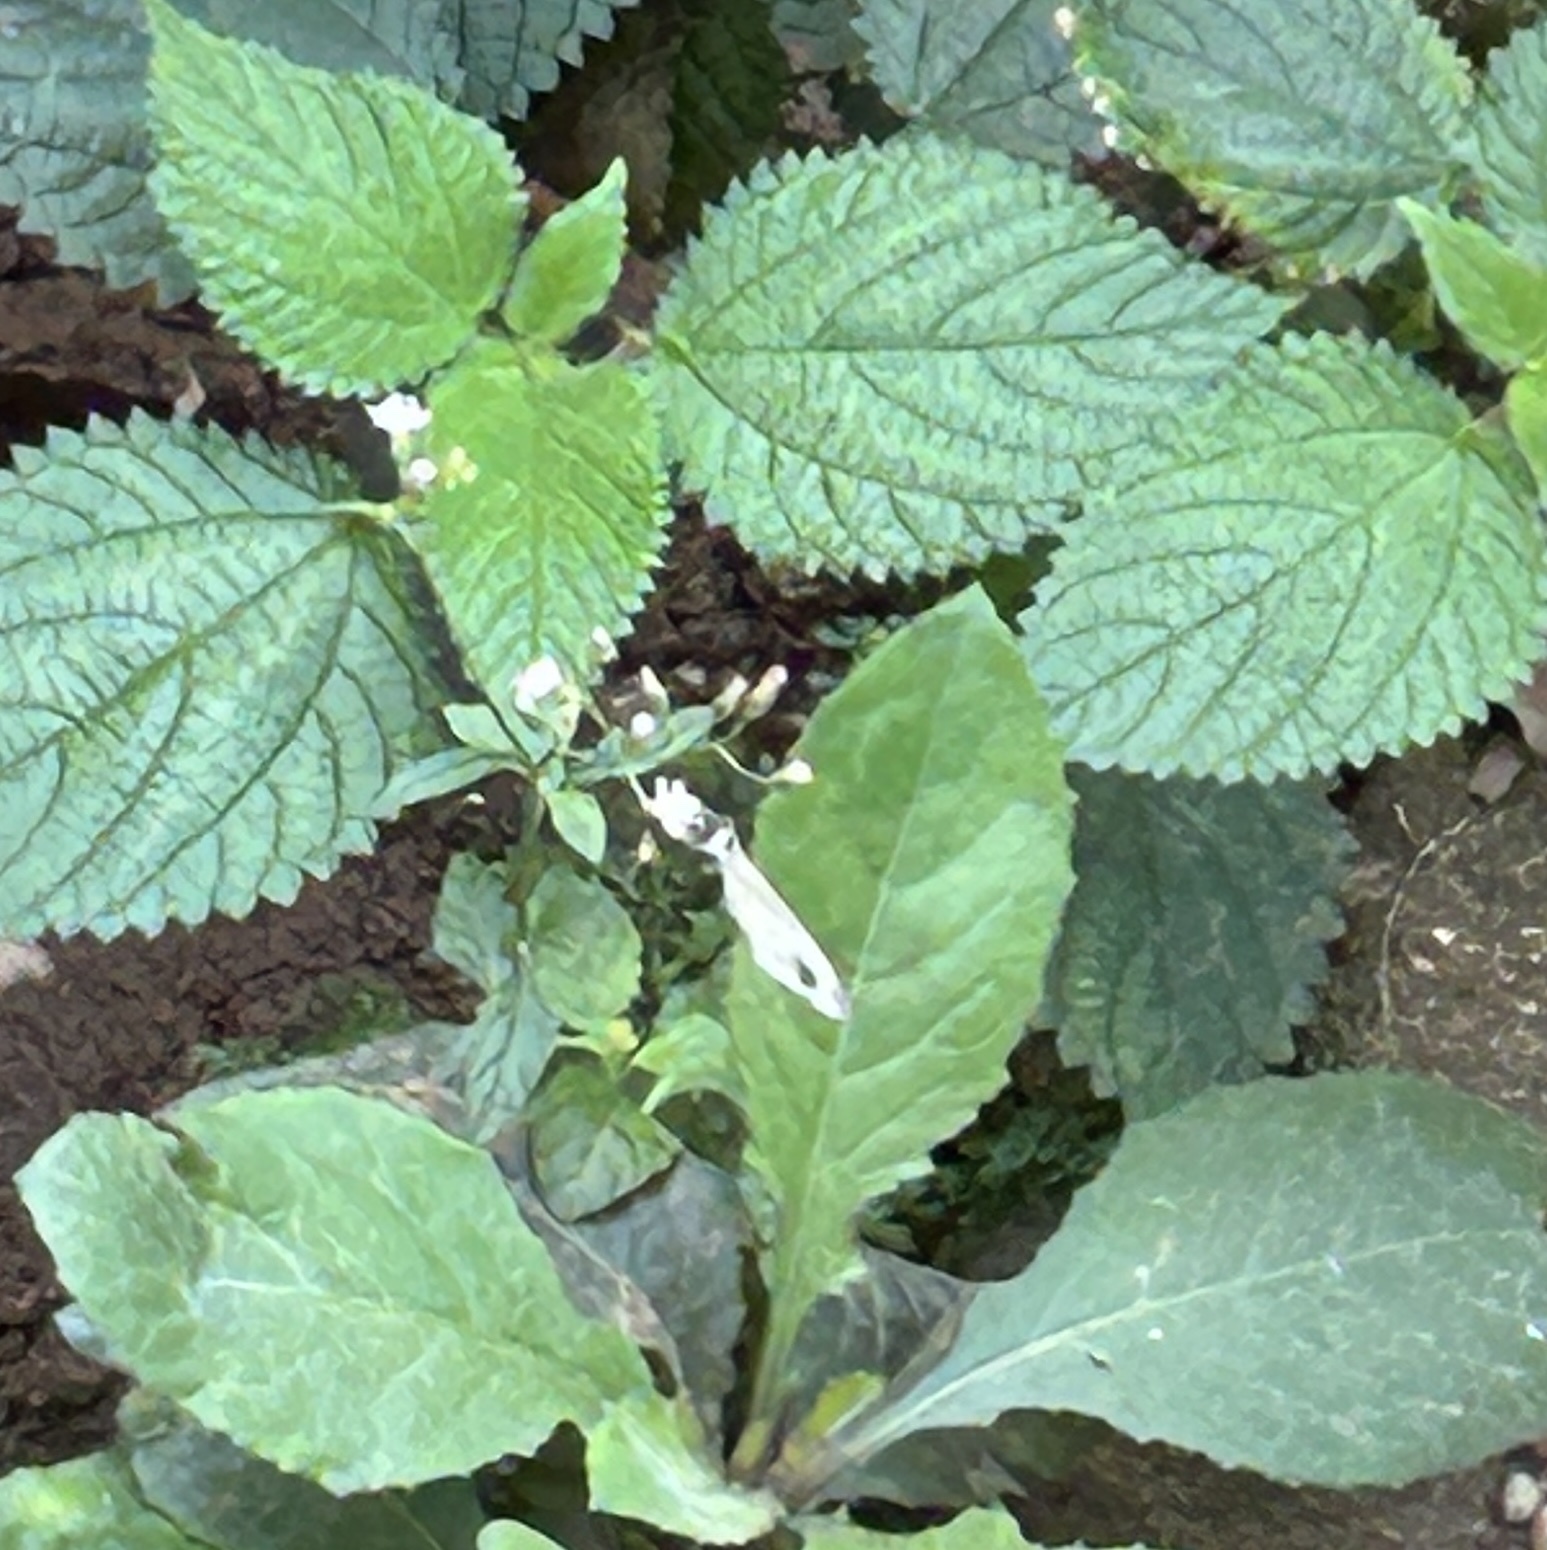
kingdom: Animalia
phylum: Arthropoda
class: Insecta
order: Lepidoptera
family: Pieridae
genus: Leptosia
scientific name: Leptosia nina
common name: Psyche
